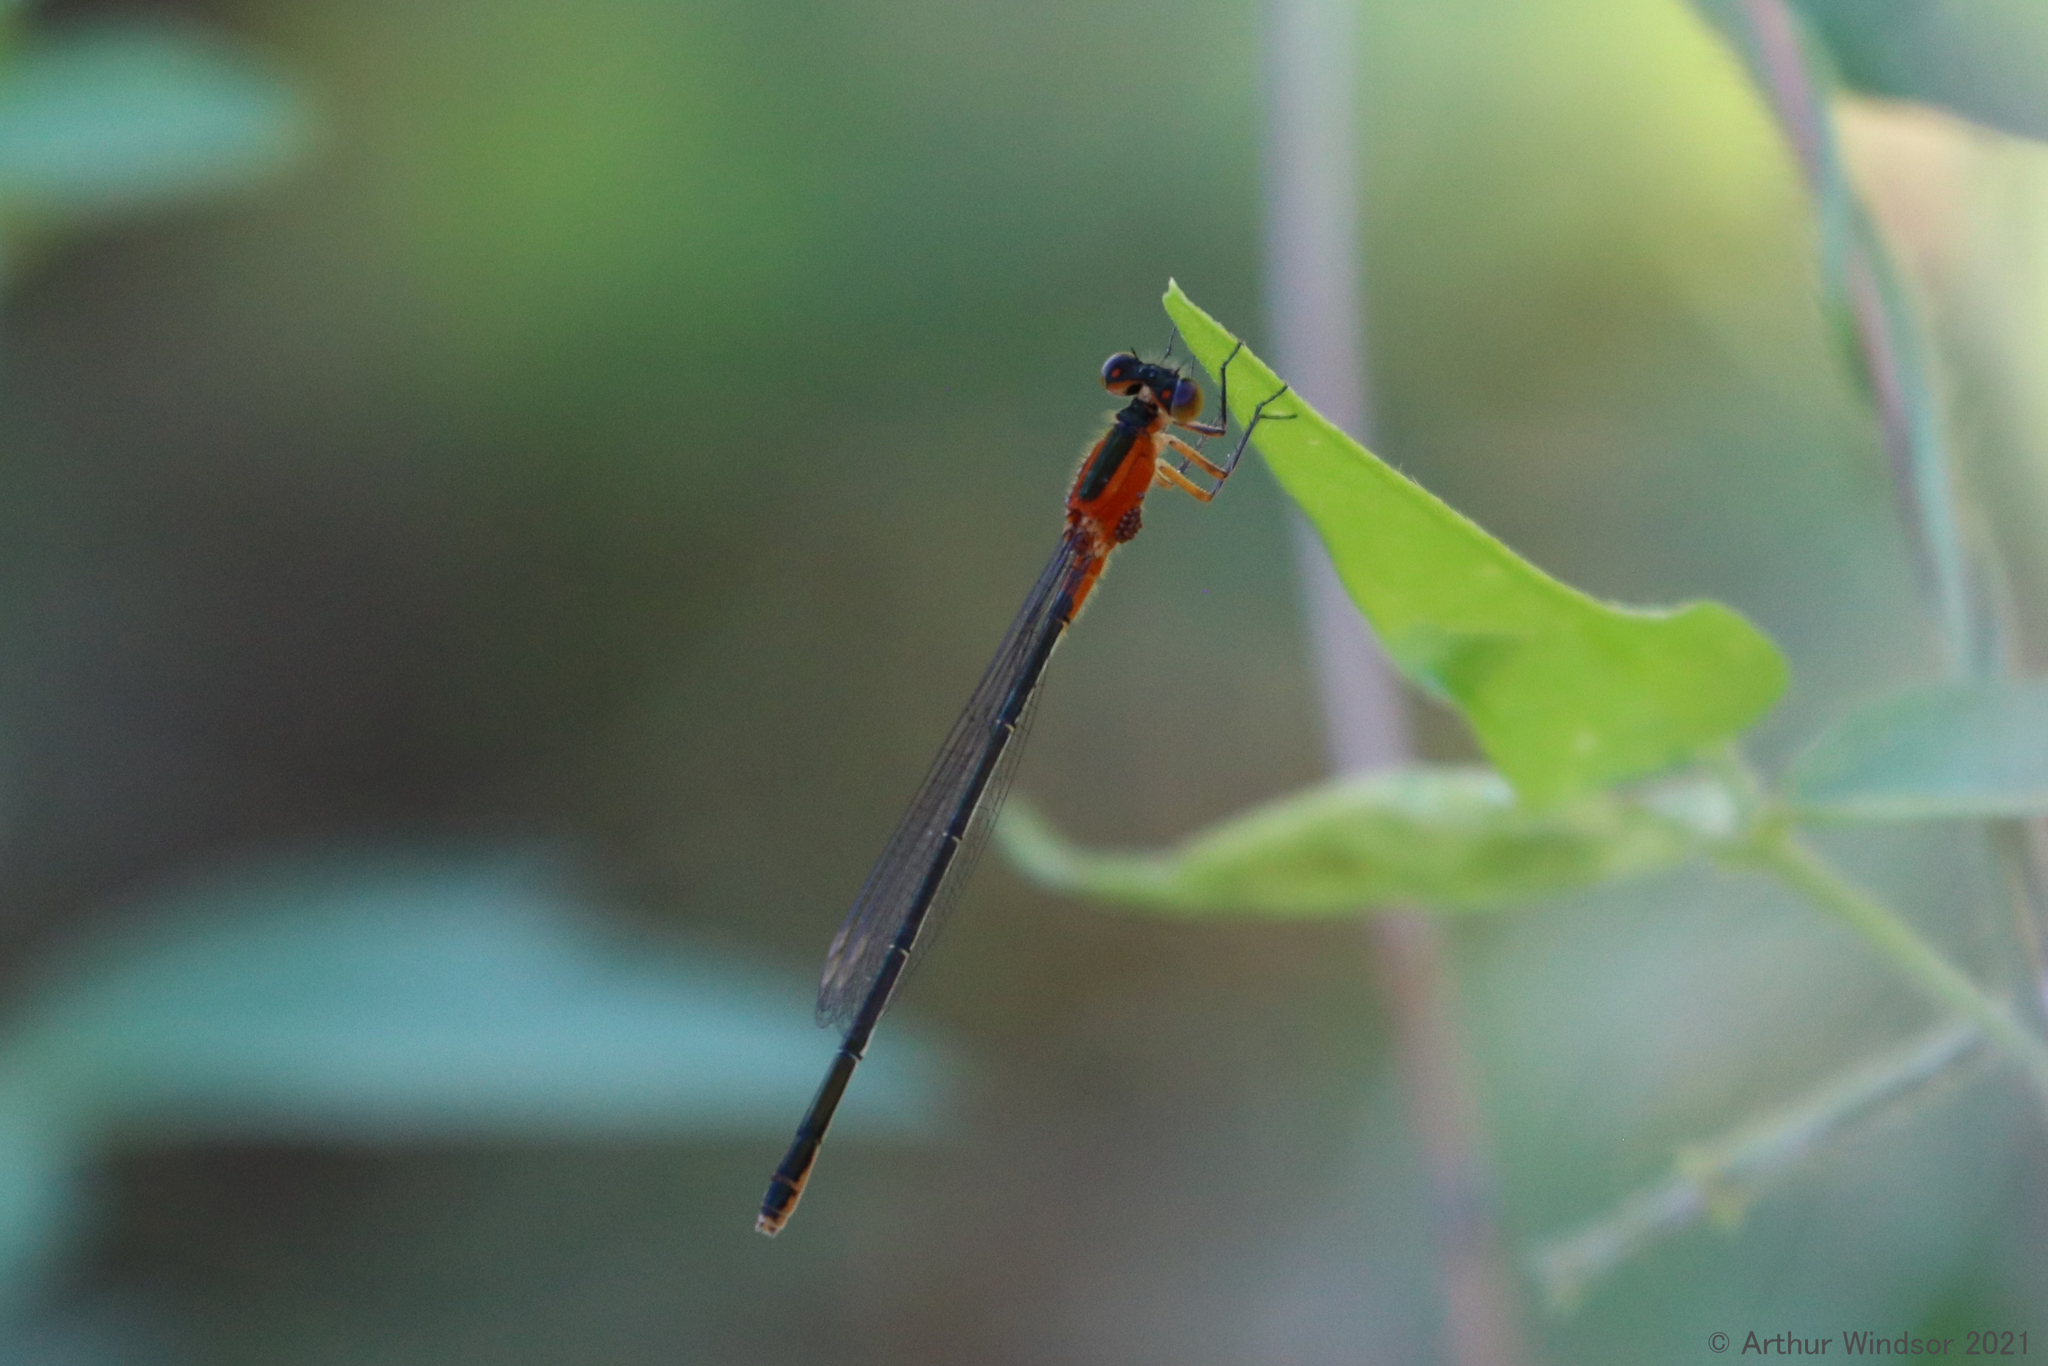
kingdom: Animalia
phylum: Arthropoda
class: Insecta
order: Odonata
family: Coenagrionidae
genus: Ischnura
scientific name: Ischnura ramburii
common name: Rambur's forktail
